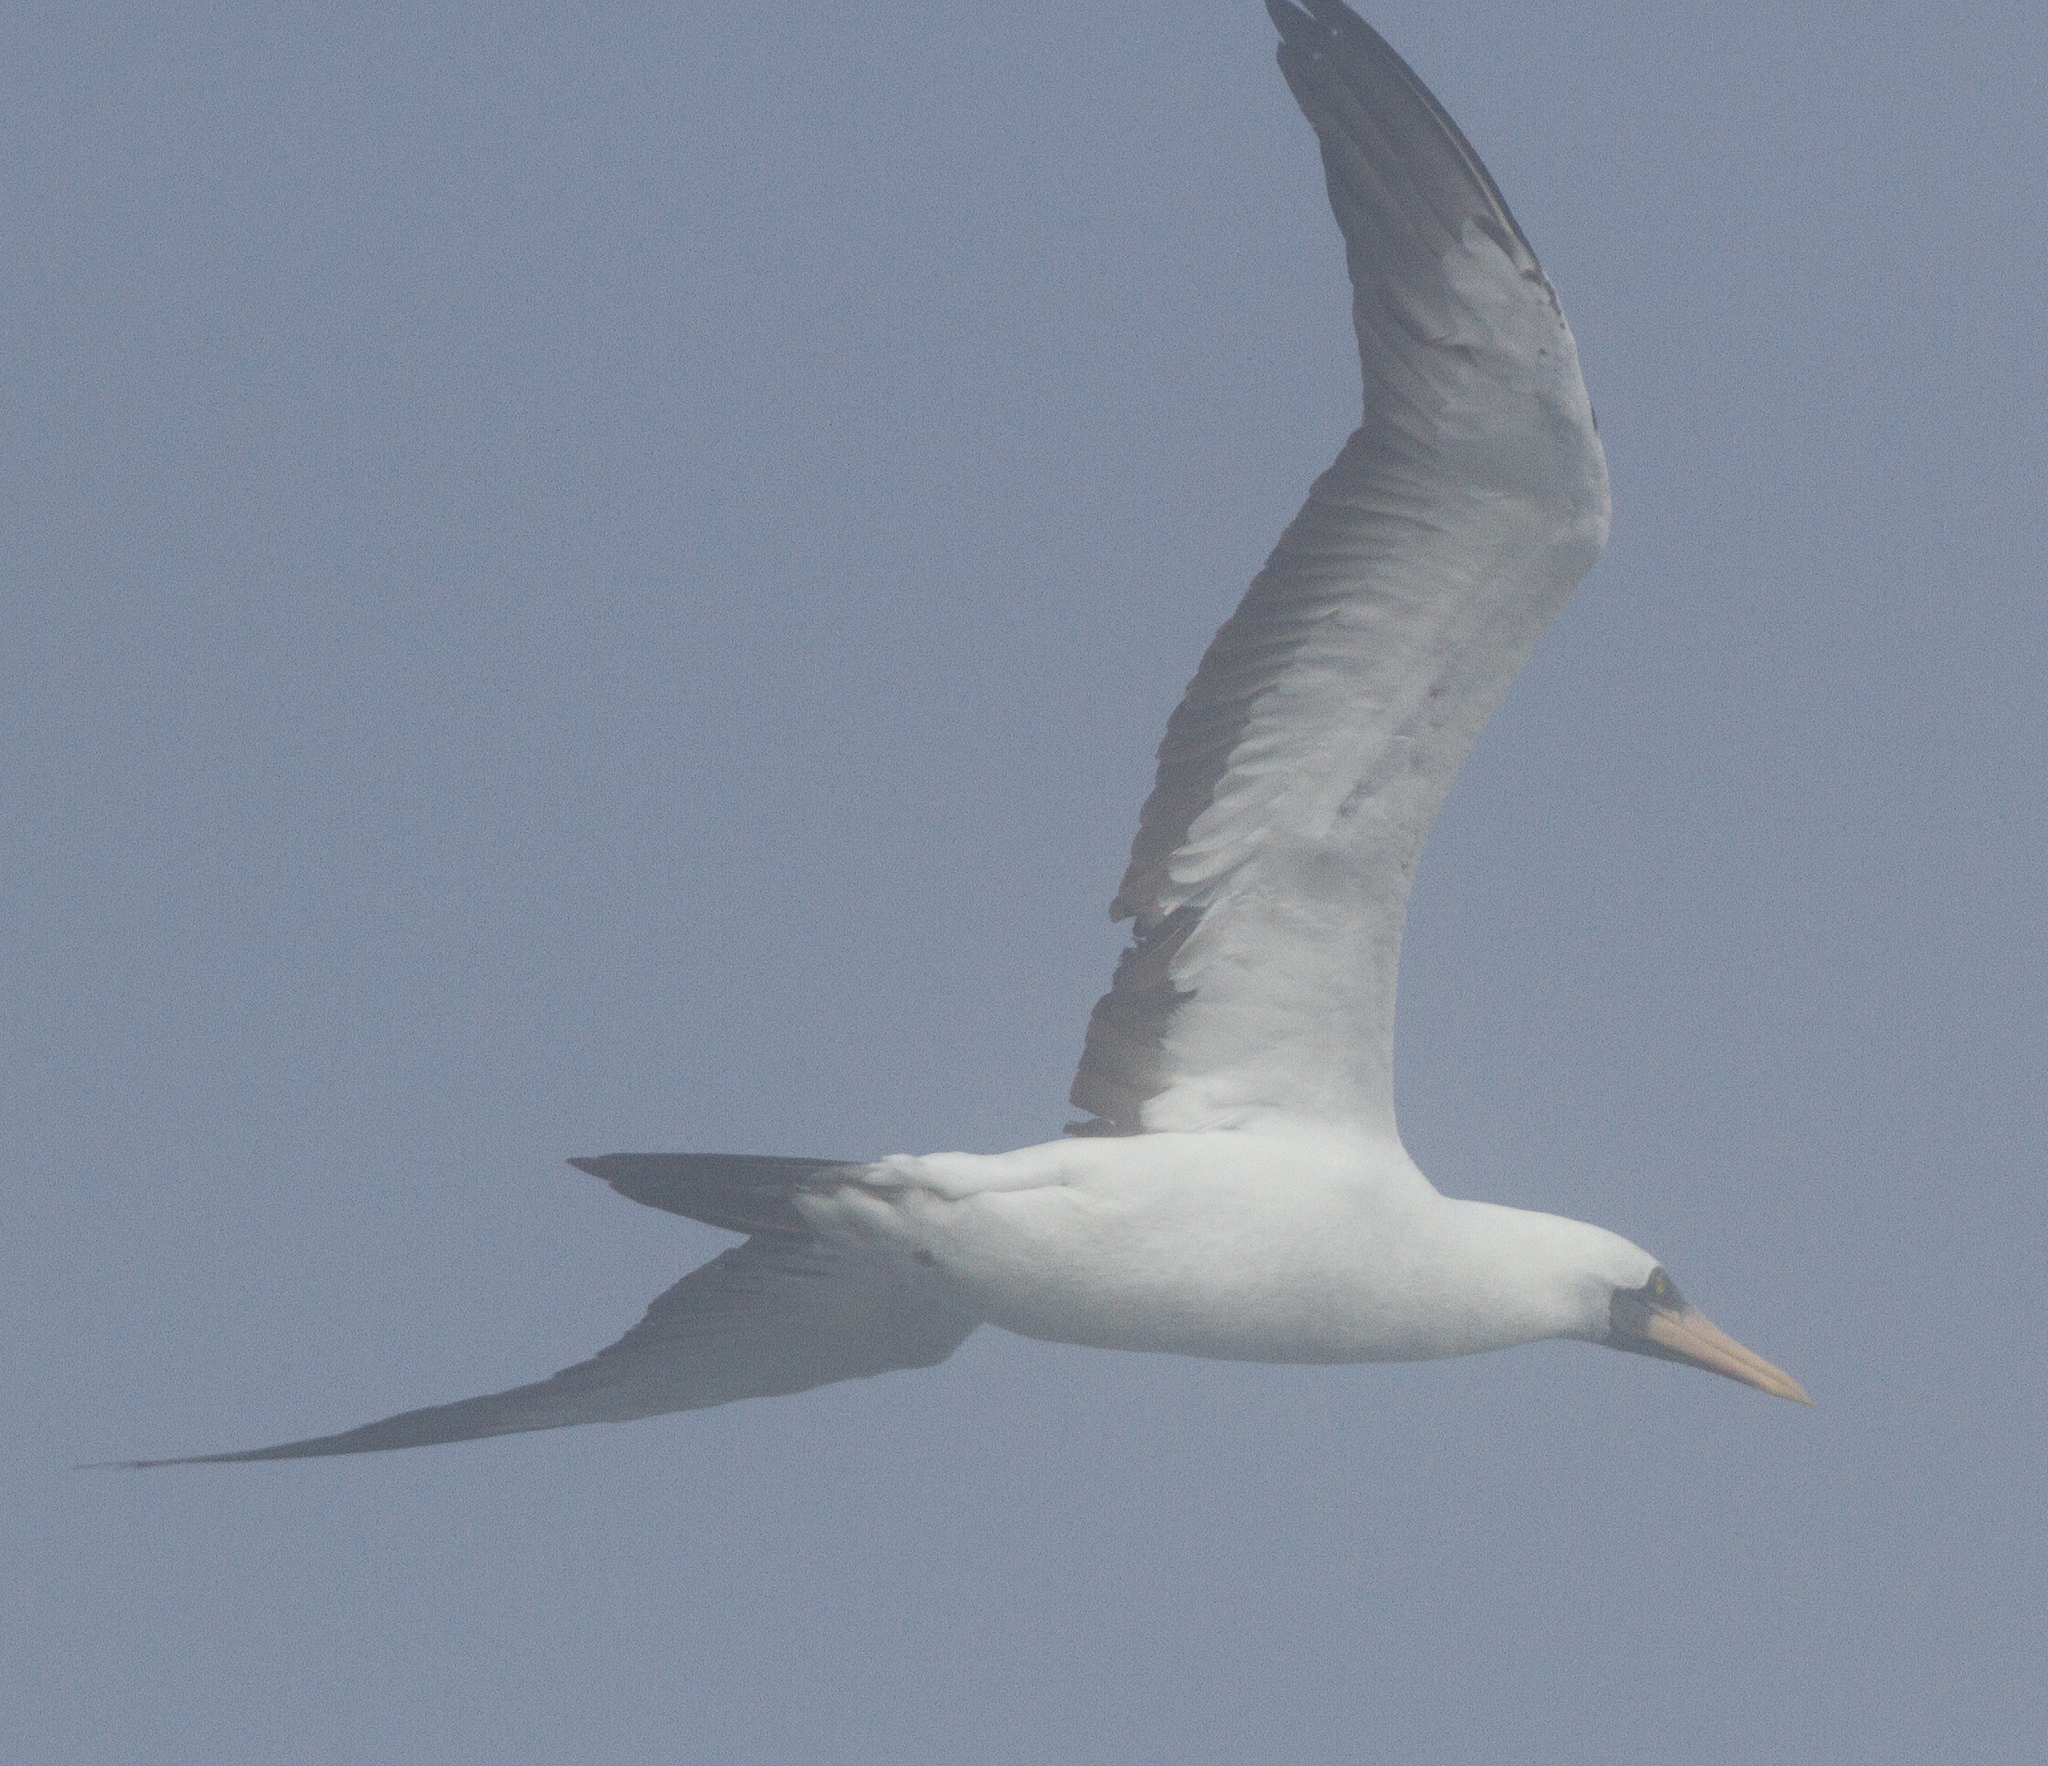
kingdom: Animalia
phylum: Chordata
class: Aves
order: Suliformes
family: Sulidae
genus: Sula
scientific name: Sula granti
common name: Nazca booby
